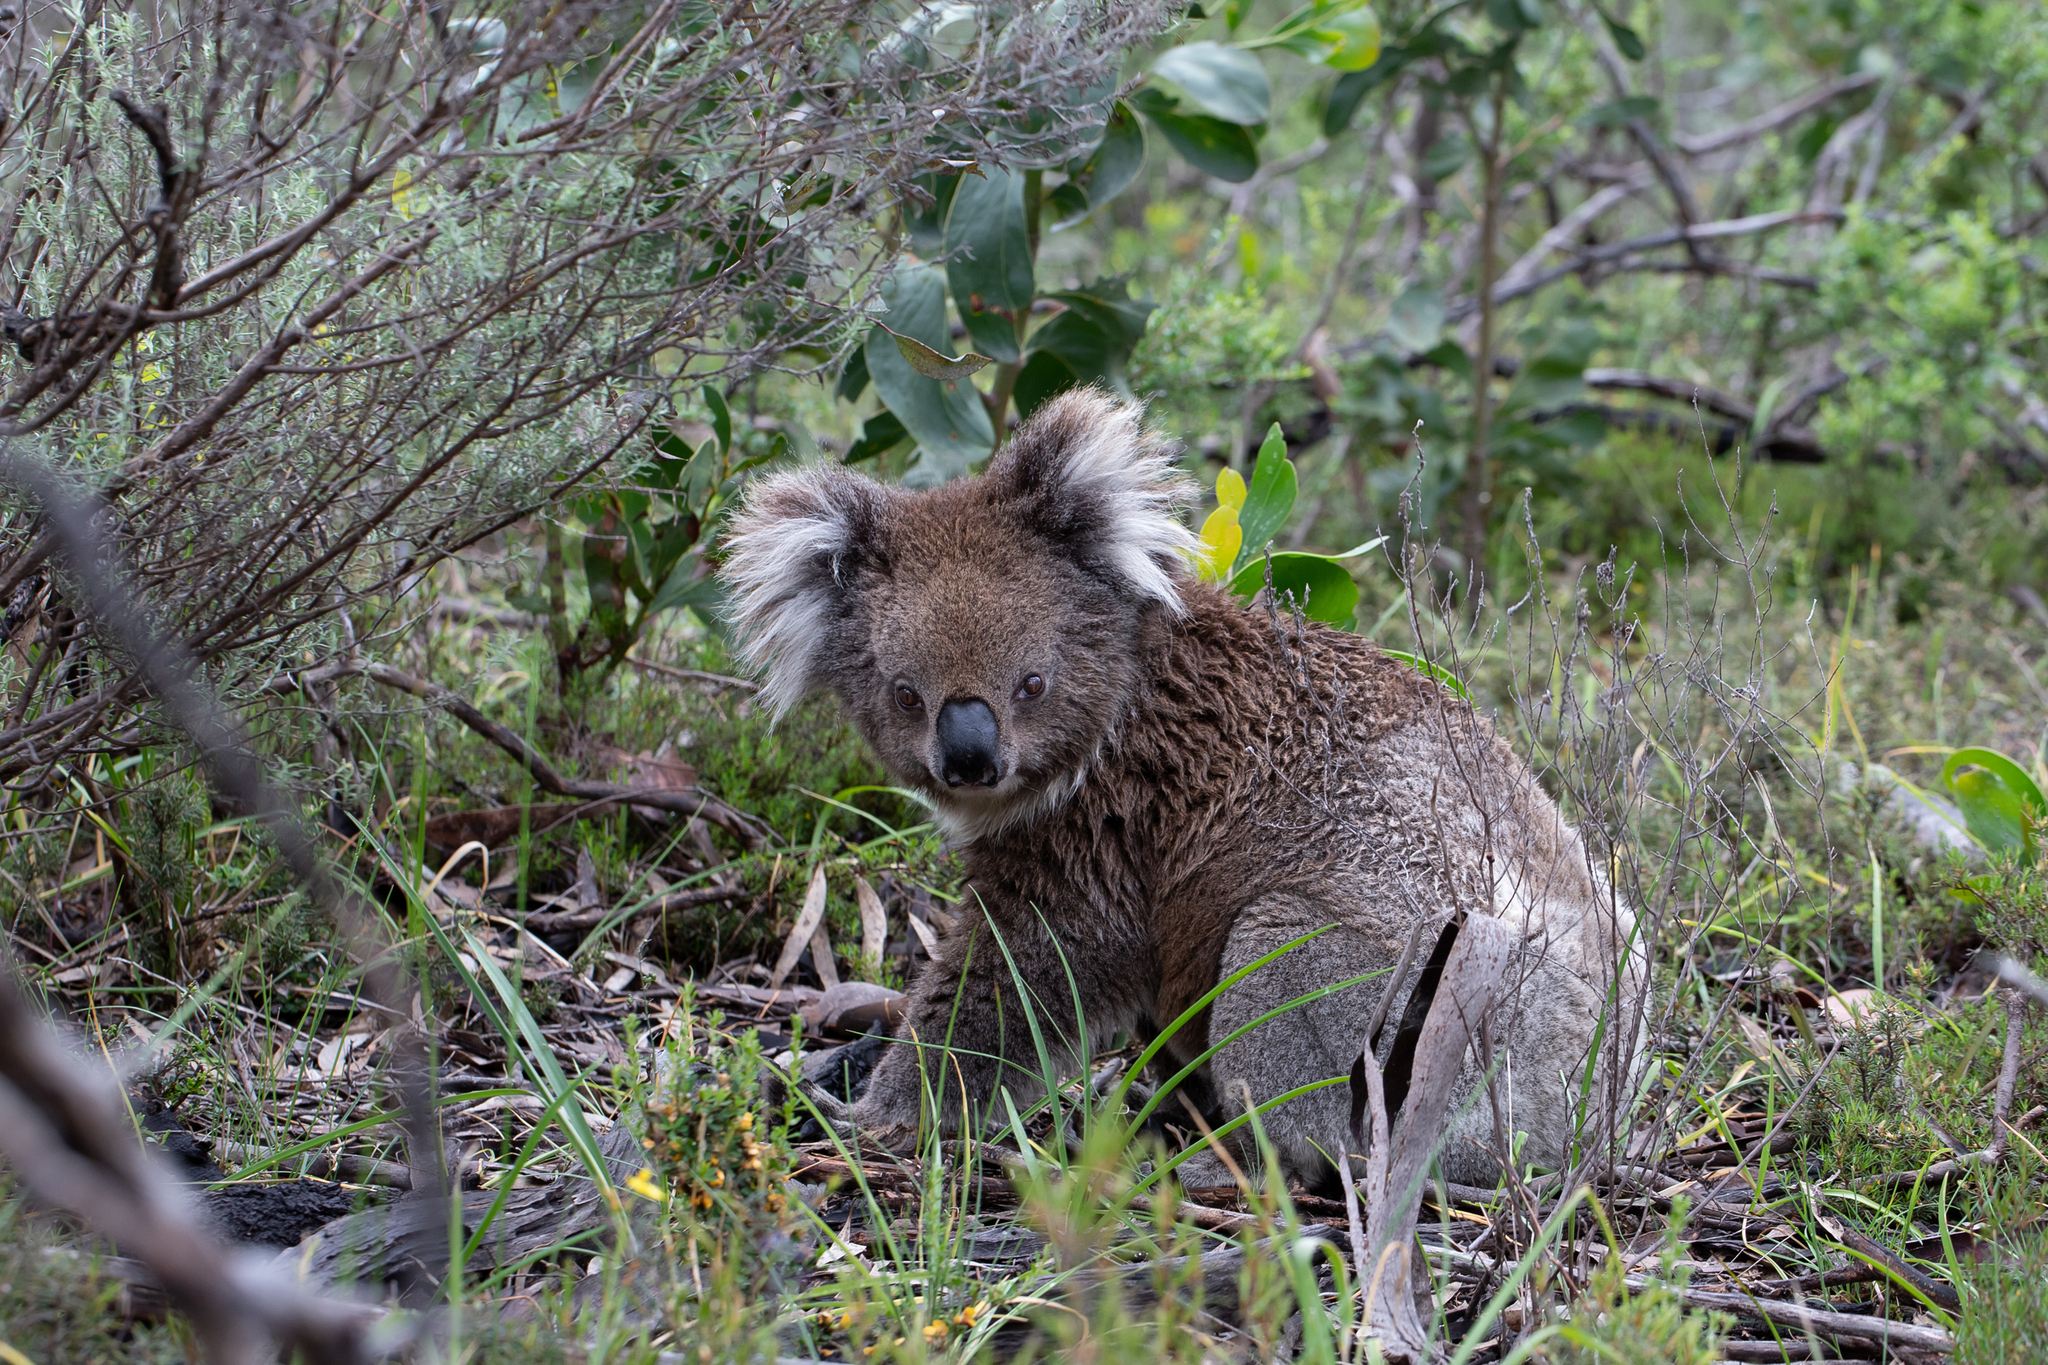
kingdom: Animalia
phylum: Chordata
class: Mammalia
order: Diprotodontia
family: Phascolarctidae
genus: Phascolarctos
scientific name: Phascolarctos cinereus
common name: Koala
